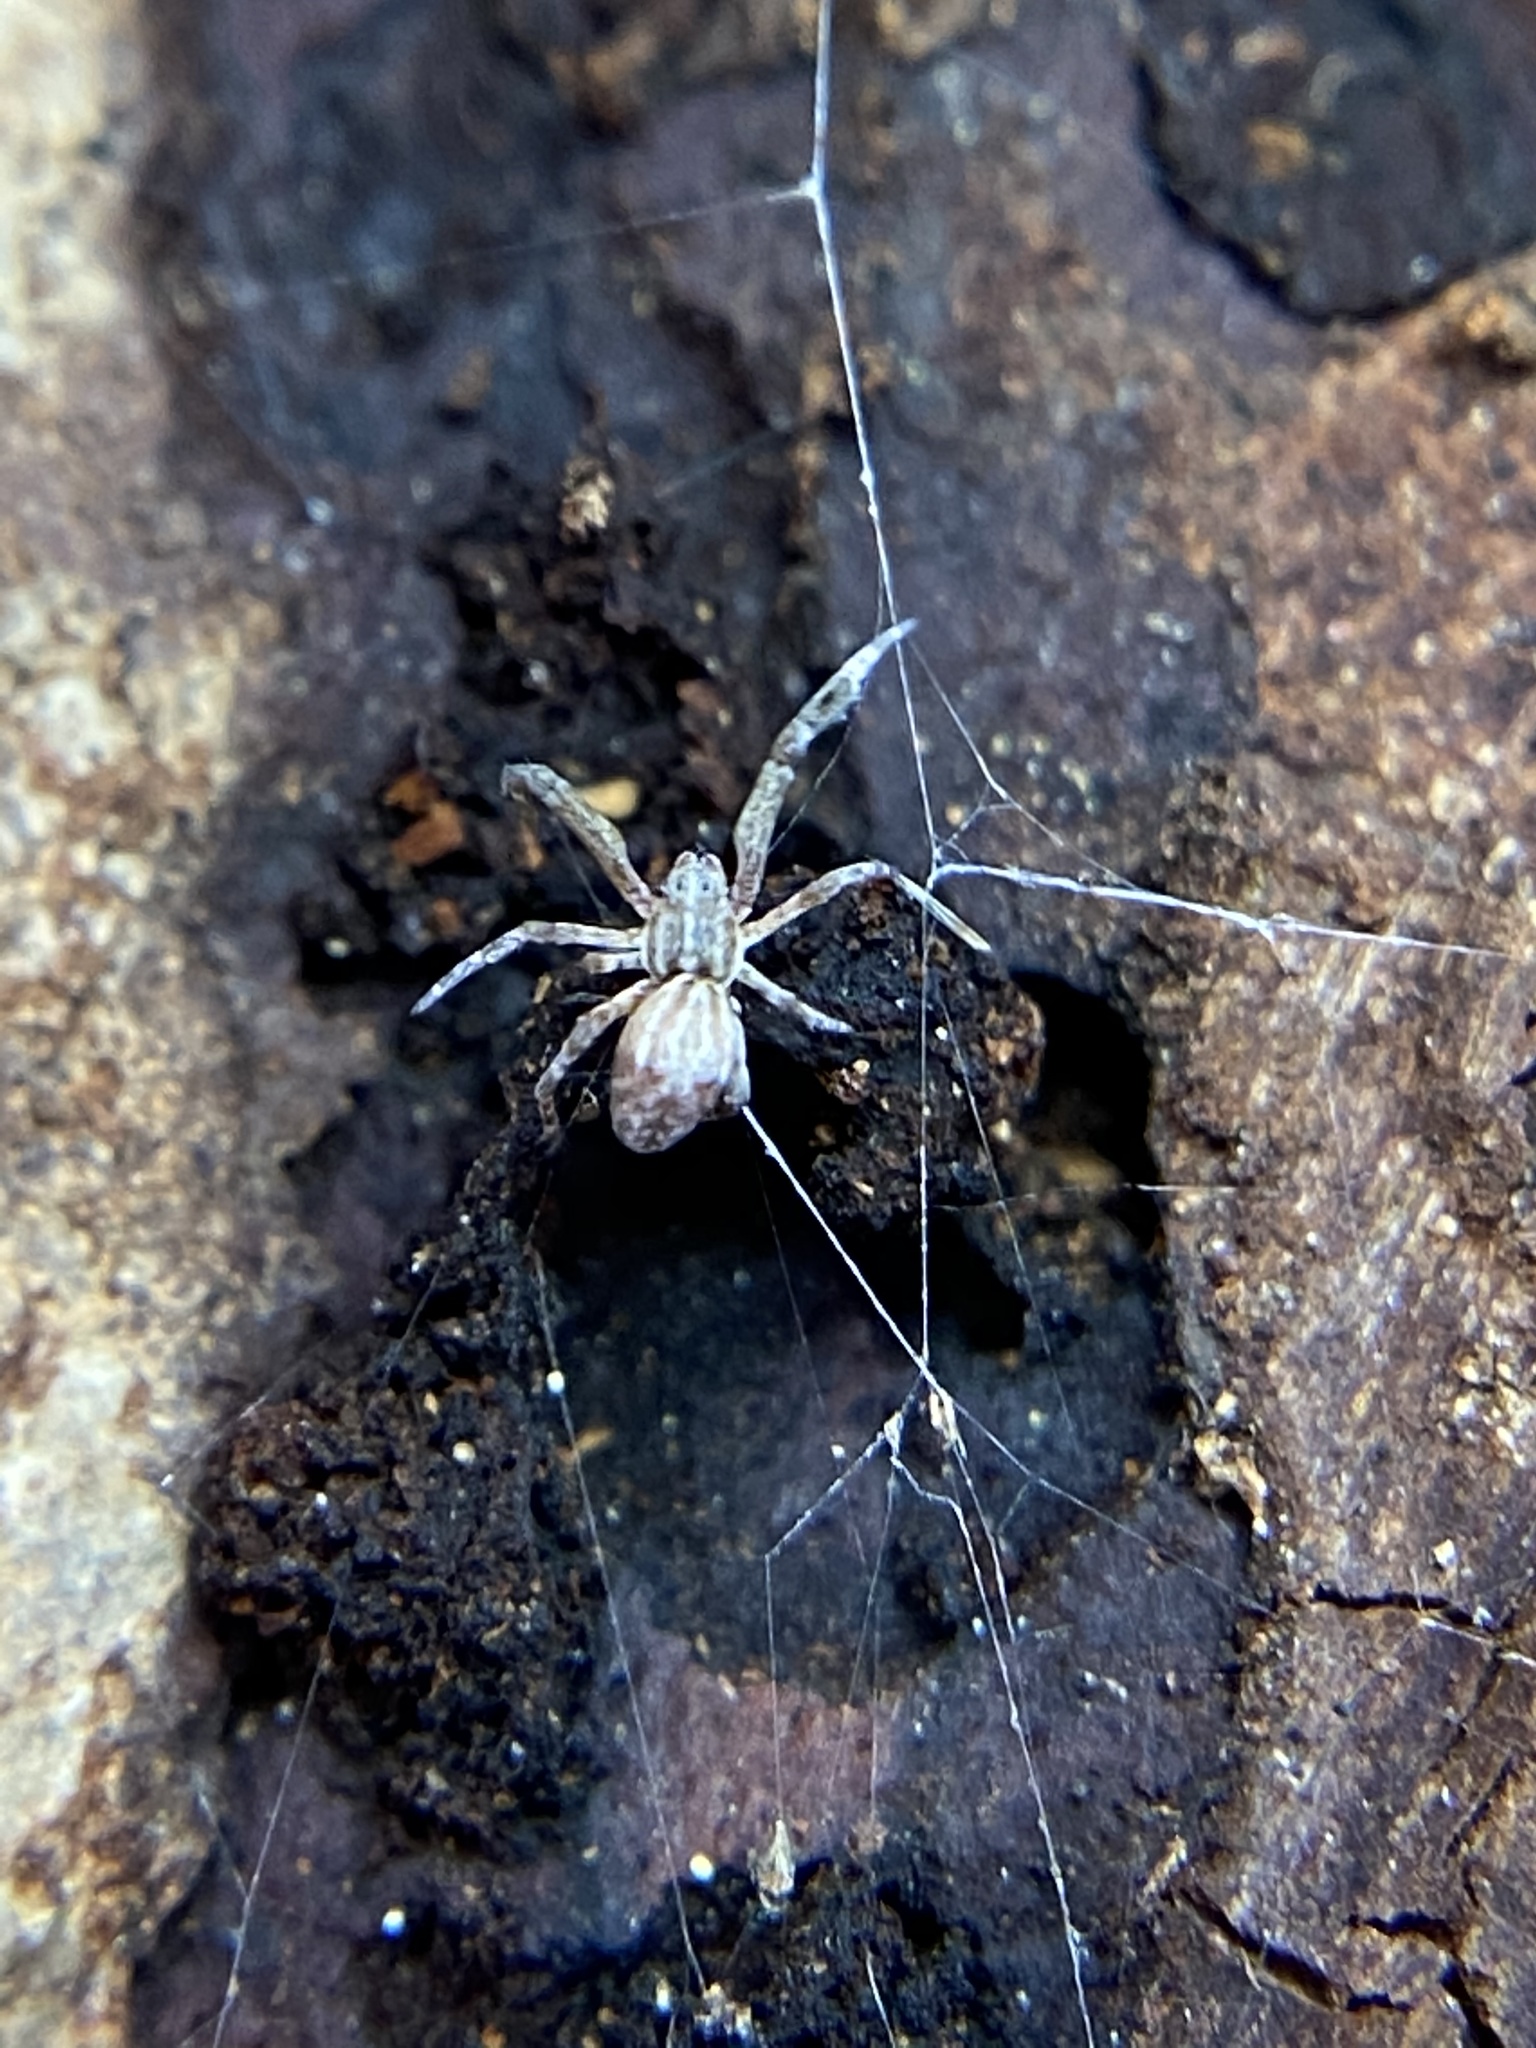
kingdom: Animalia
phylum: Arthropoda
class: Arachnida
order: Araneae
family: Uloboridae
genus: Uloborus
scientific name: Uloborus glomosus
